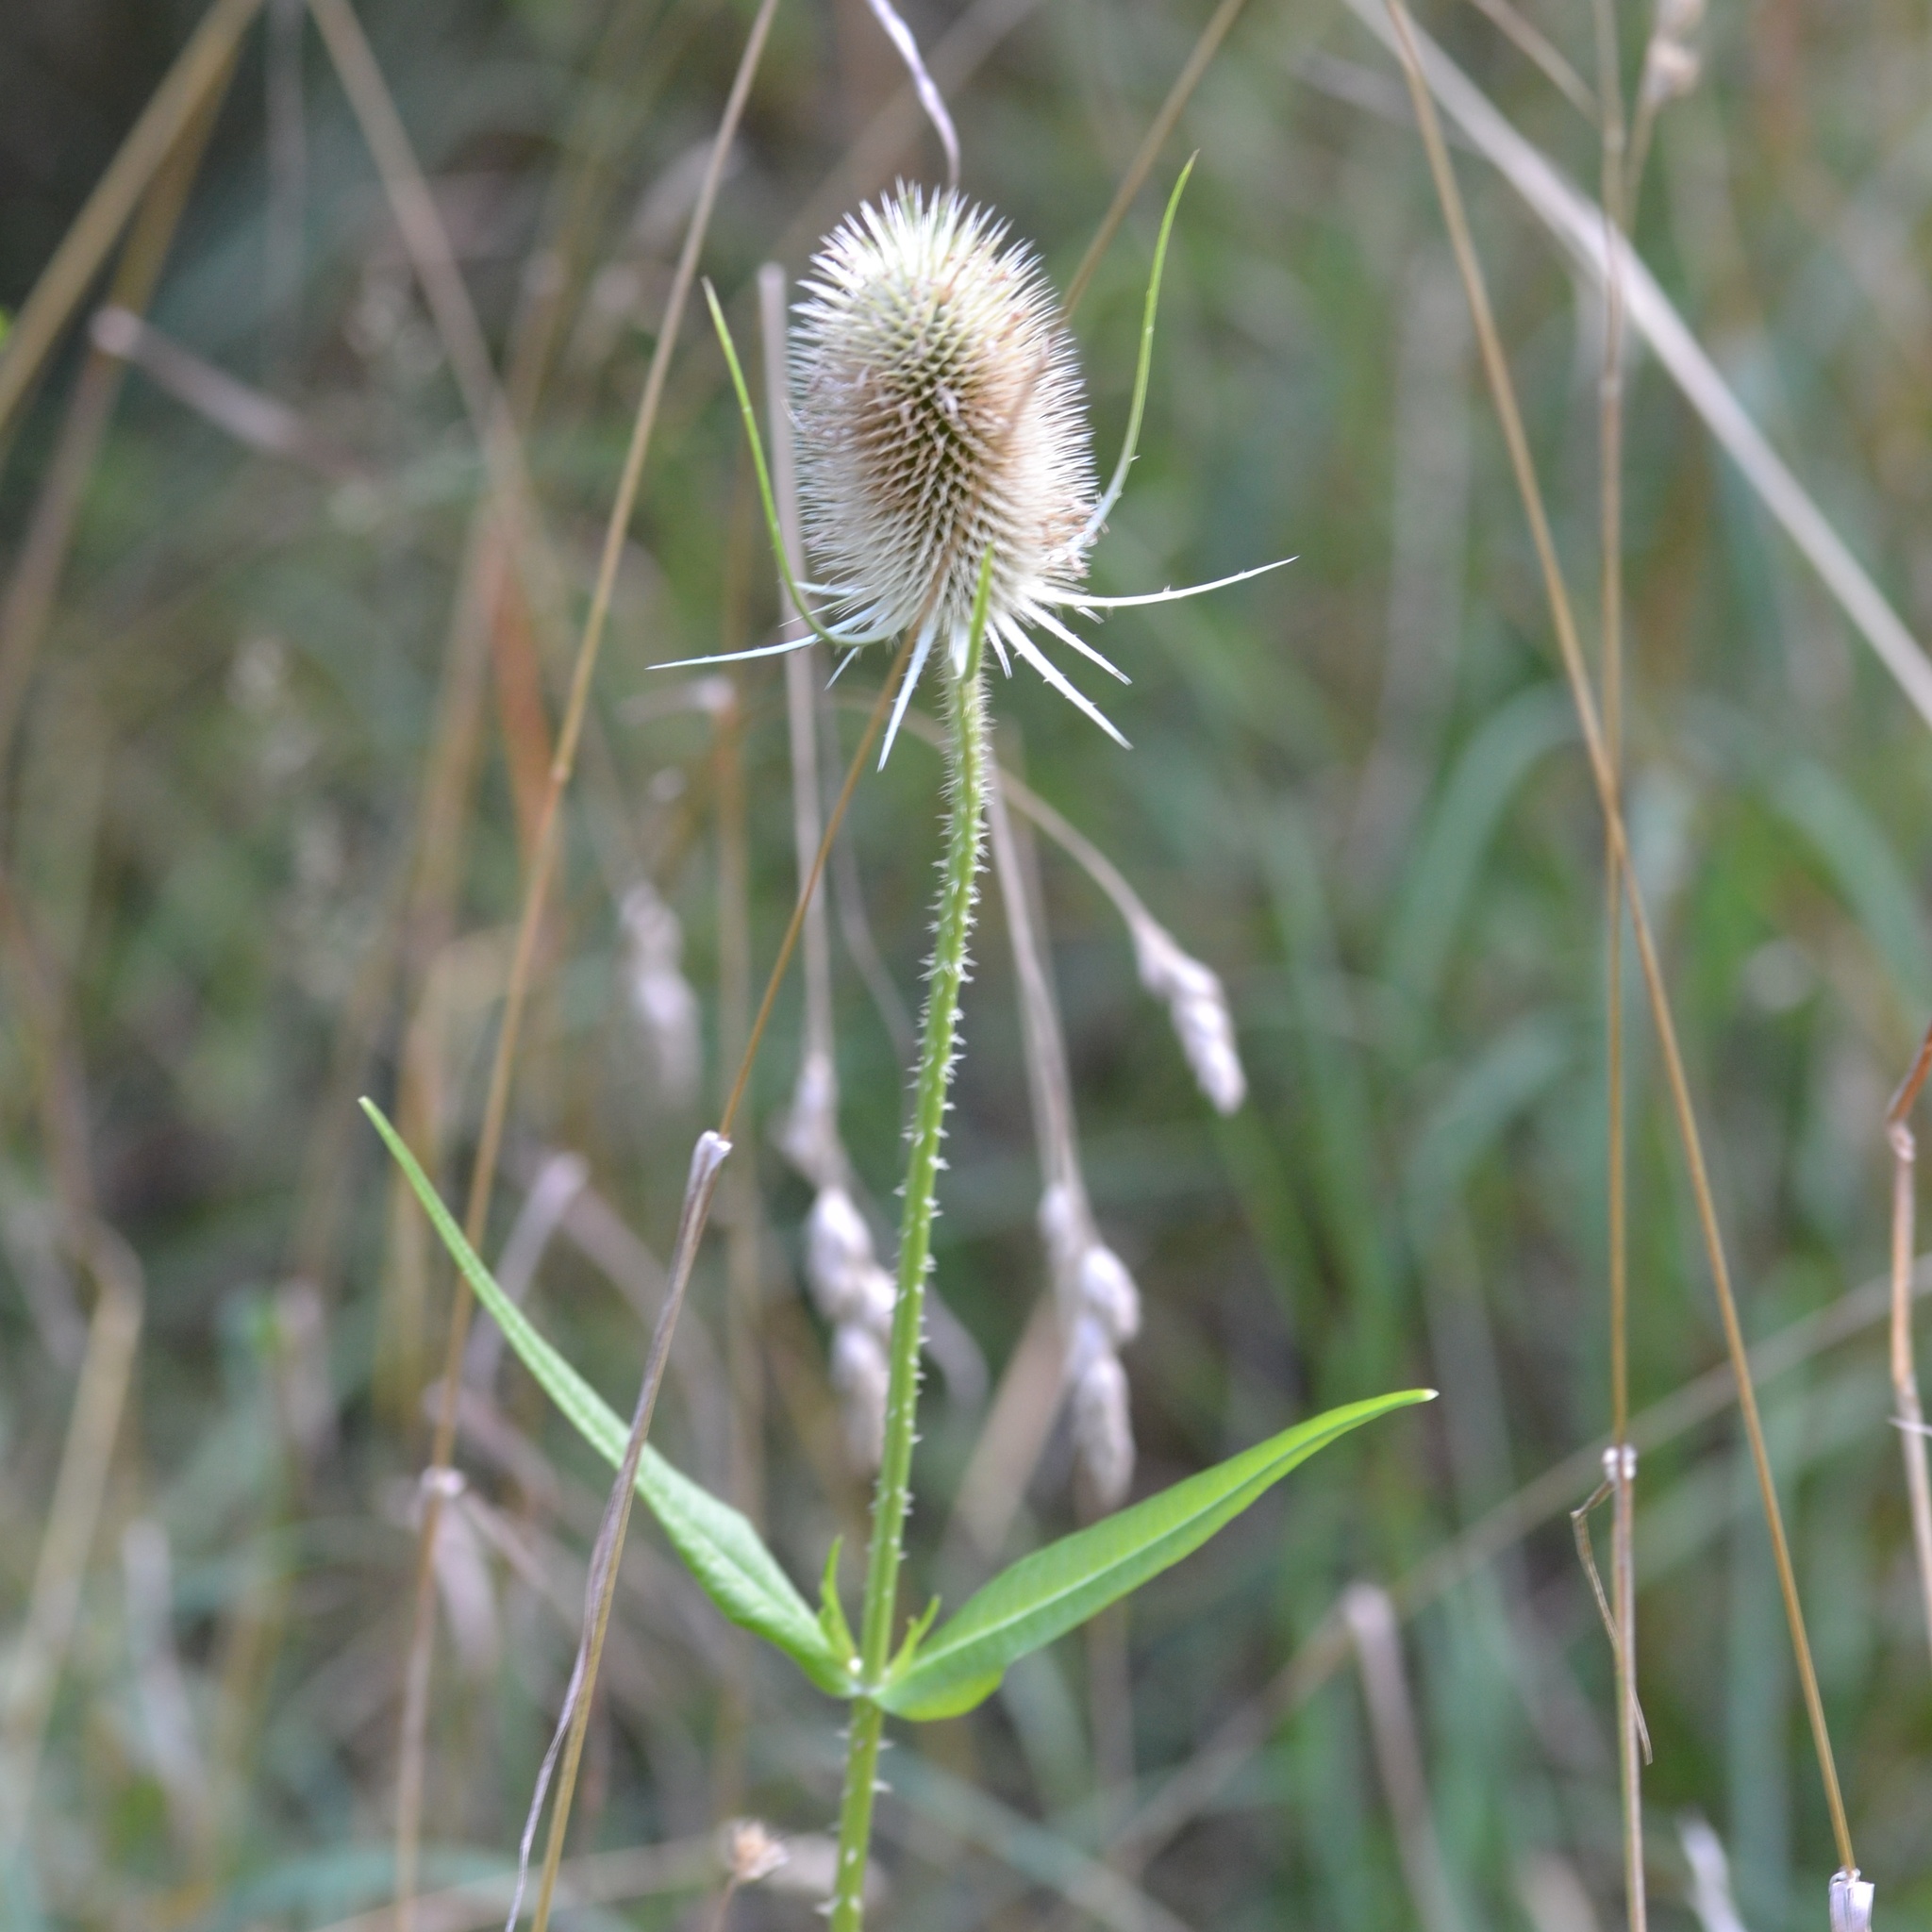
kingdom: Plantae
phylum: Tracheophyta
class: Magnoliopsida
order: Dipsacales
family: Caprifoliaceae
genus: Dipsacus
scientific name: Dipsacus fullonum
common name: Teasel
